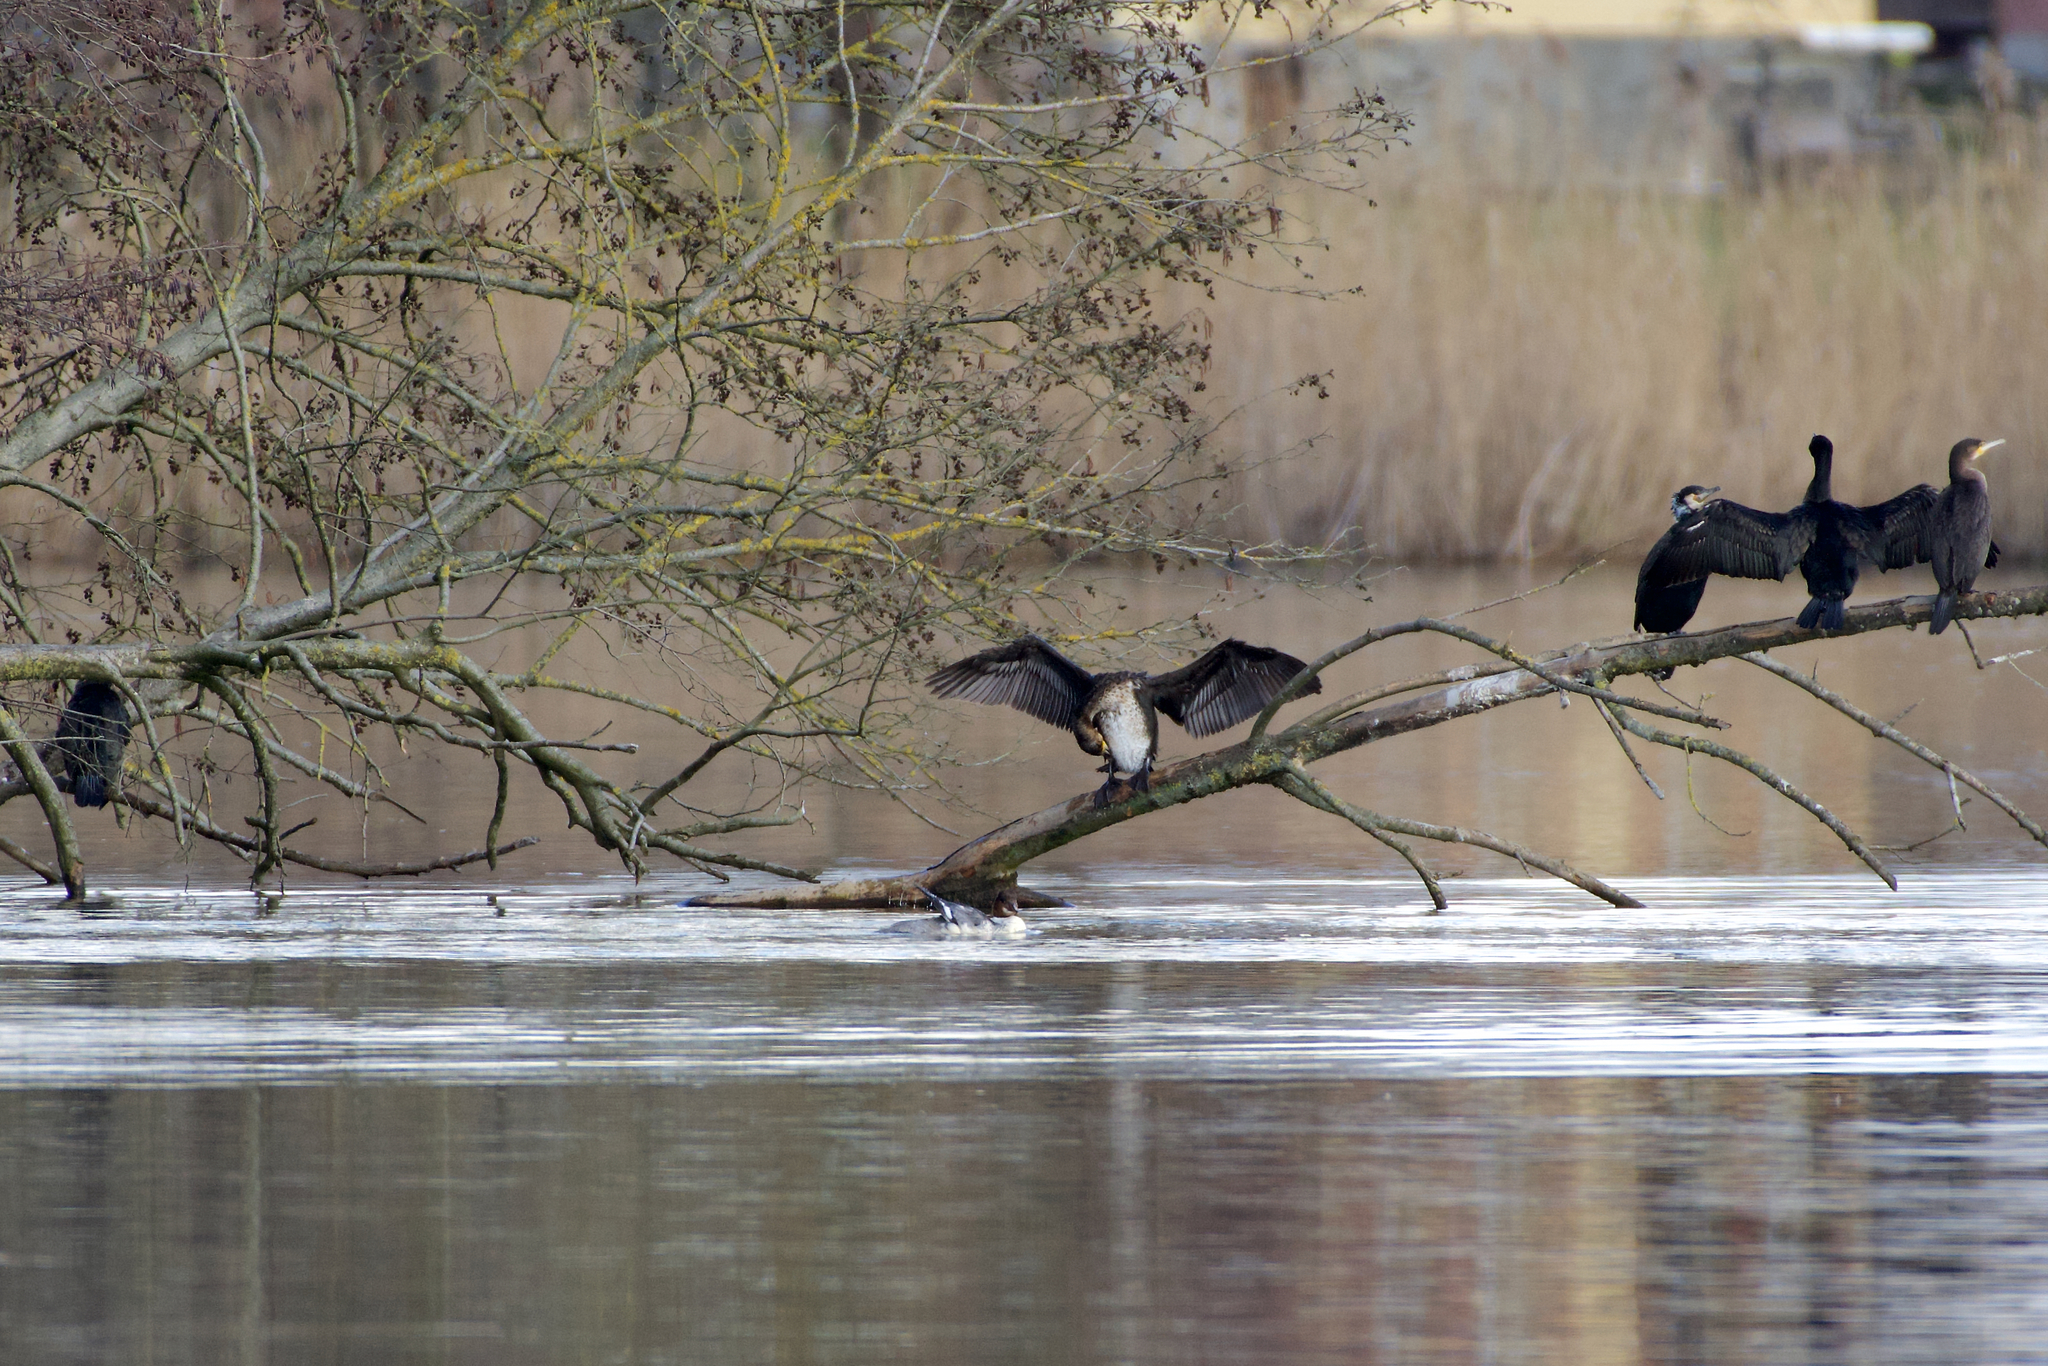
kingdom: Animalia
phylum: Chordata
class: Aves
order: Suliformes
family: Phalacrocoracidae
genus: Phalacrocorax
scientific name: Phalacrocorax carbo
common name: Great cormorant
